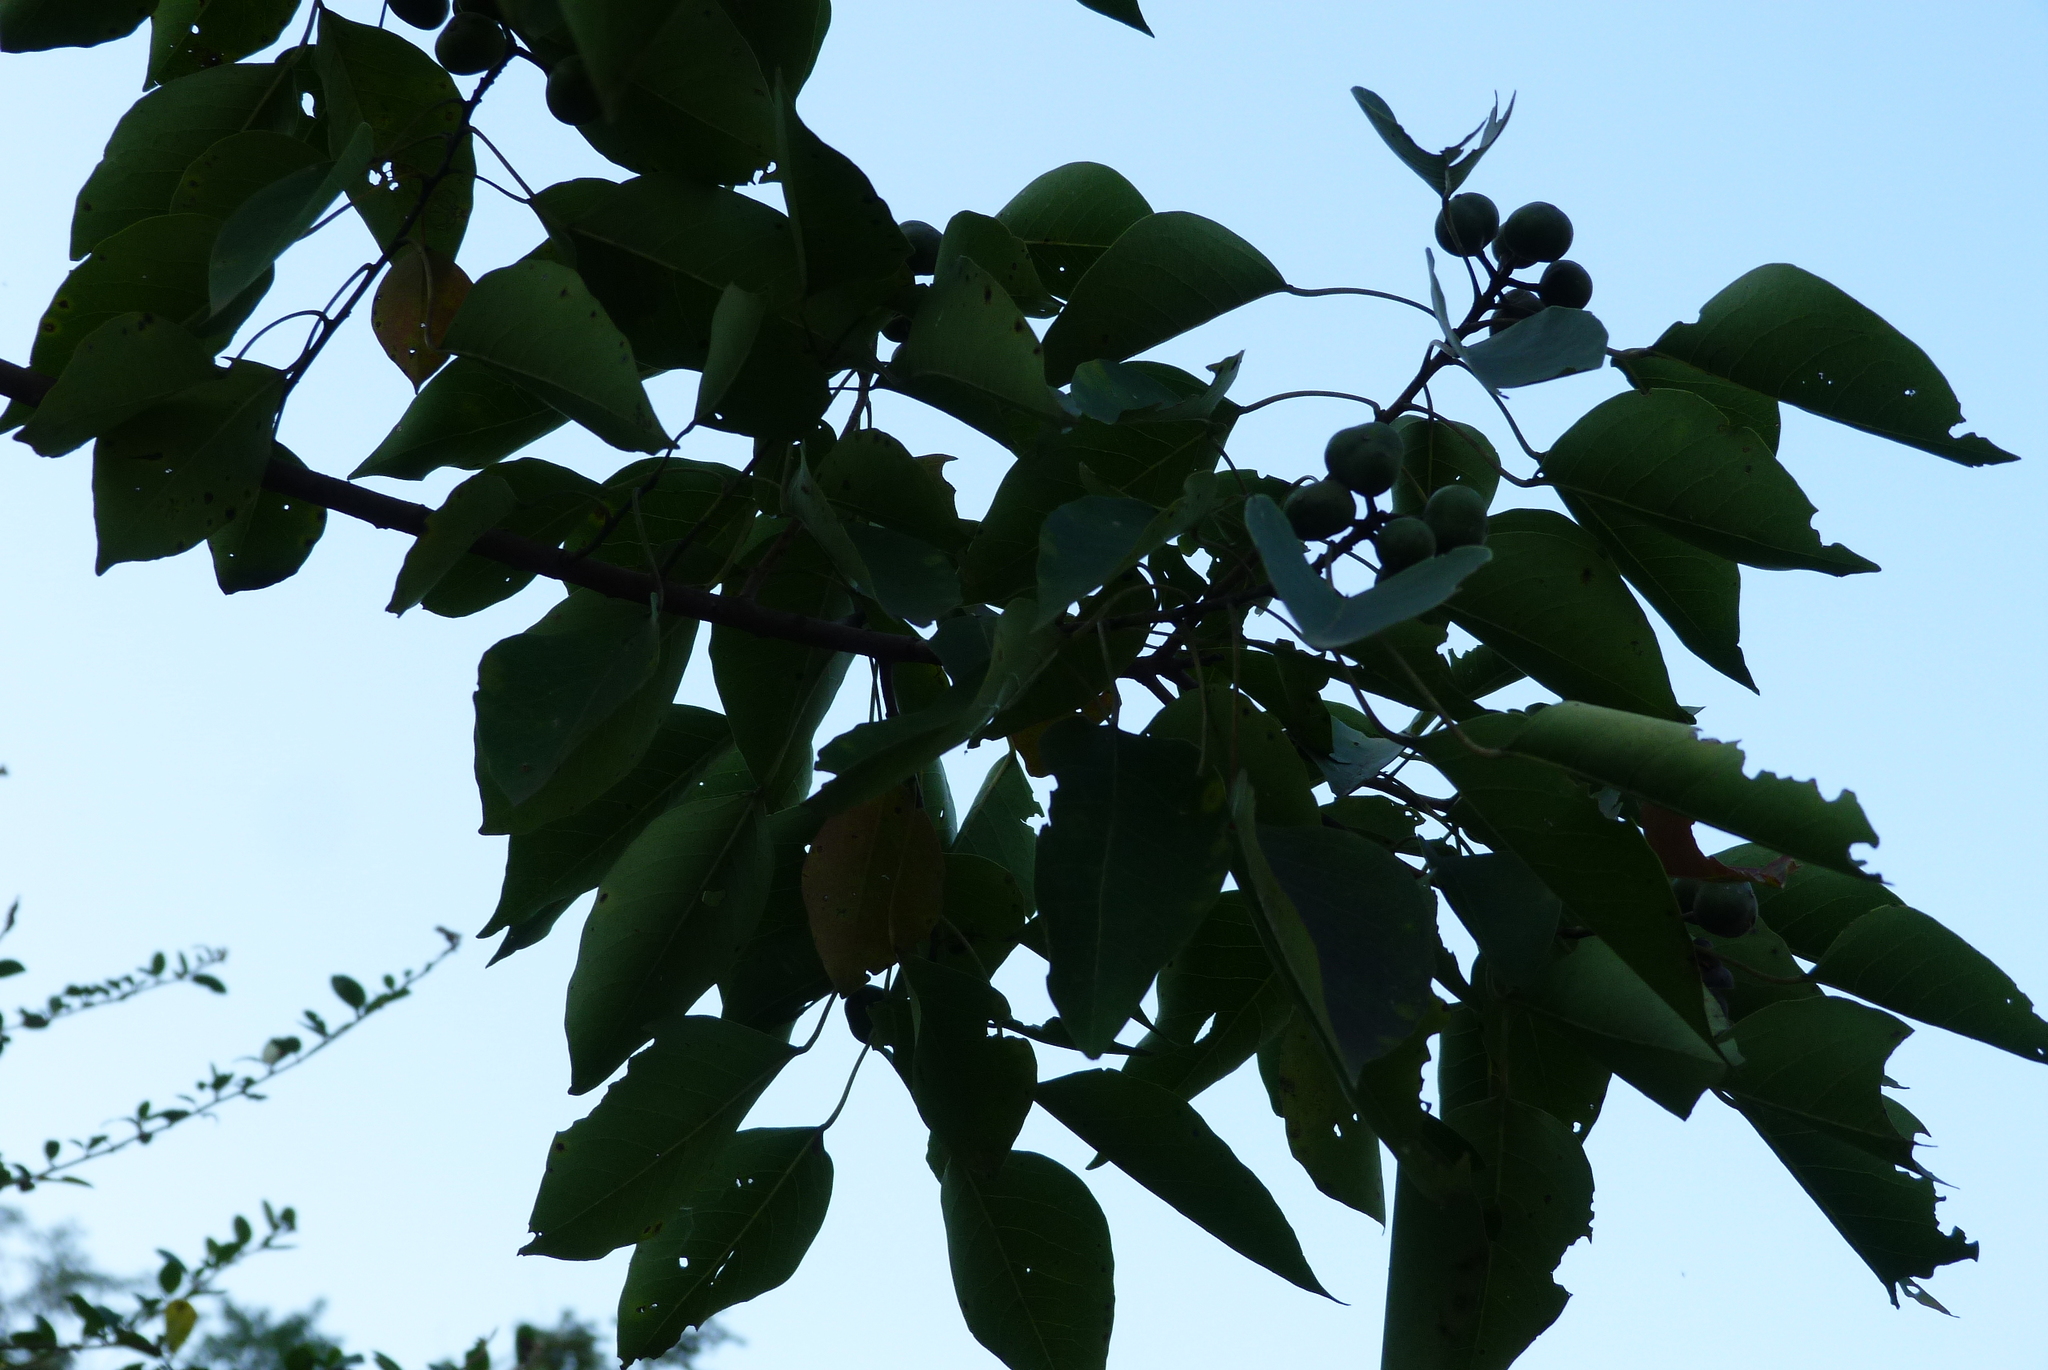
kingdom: Plantae
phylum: Tracheophyta
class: Magnoliopsida
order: Malpighiales
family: Euphorbiaceae
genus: Triadica
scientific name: Triadica sebifera
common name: Chinese tallow
